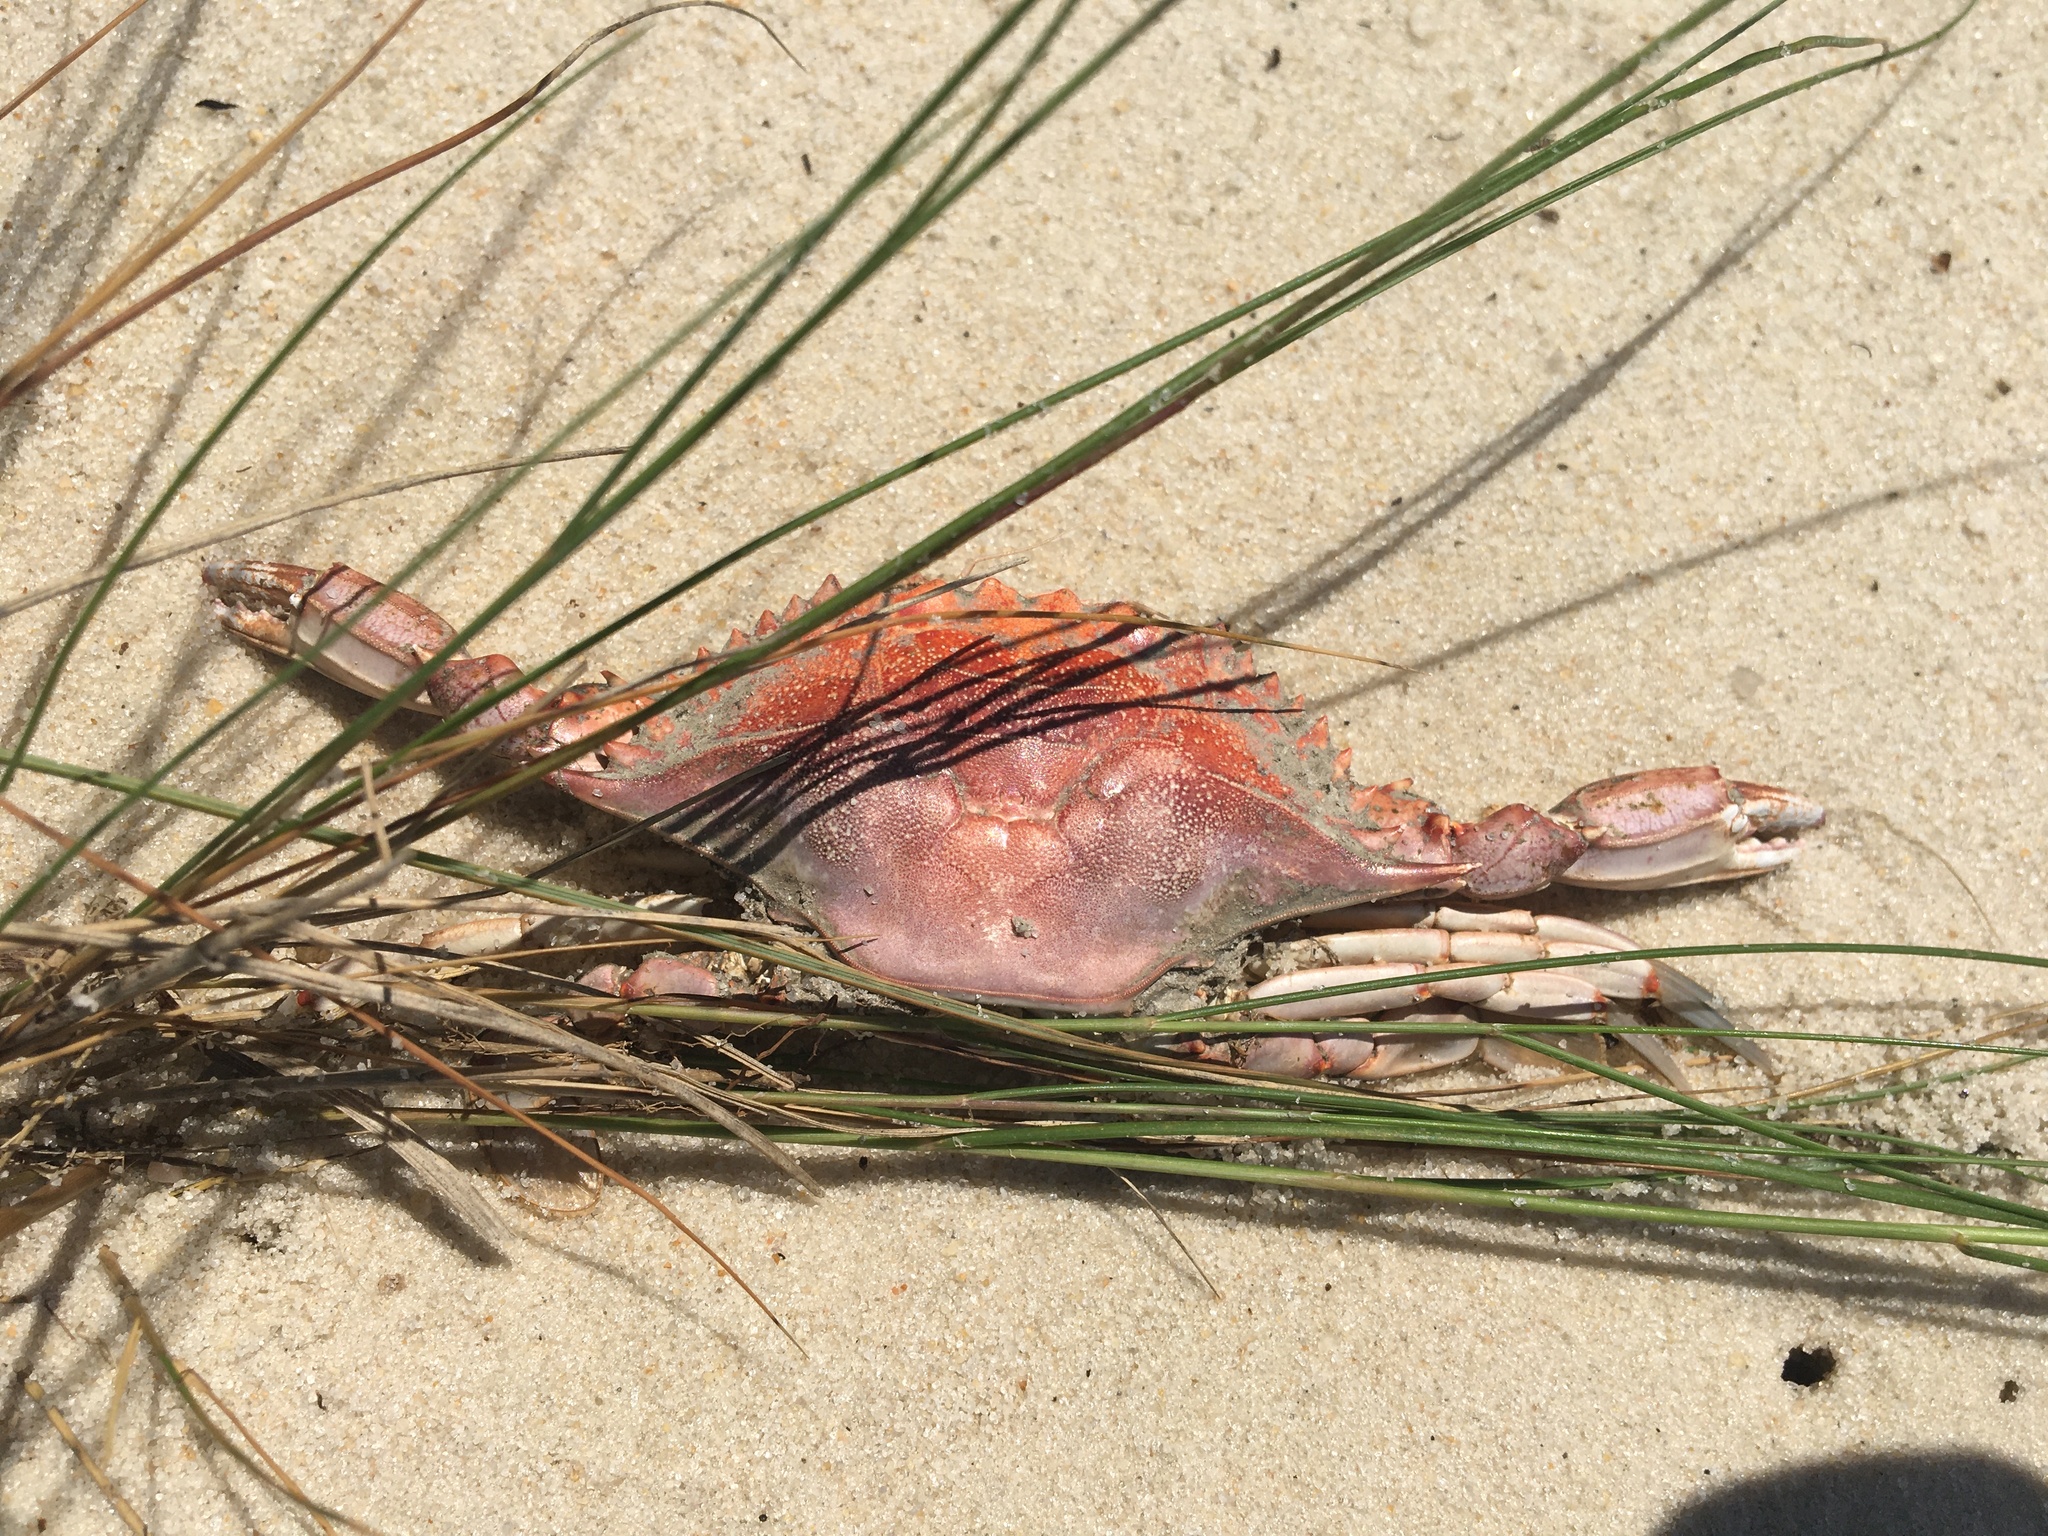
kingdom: Animalia
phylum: Arthropoda
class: Malacostraca
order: Decapoda
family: Portunidae
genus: Callinectes
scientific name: Callinectes sapidus
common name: Blue crab
